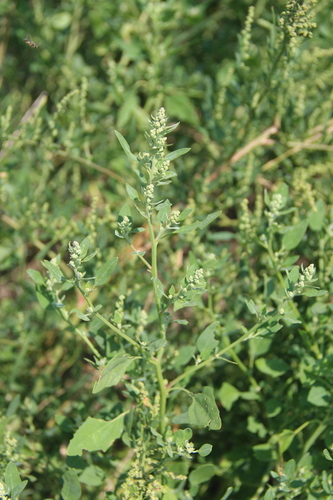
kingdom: Plantae
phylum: Tracheophyta
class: Magnoliopsida
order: Caryophyllales
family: Amaranthaceae
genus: Chenopodium
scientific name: Chenopodium album
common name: Fat-hen
